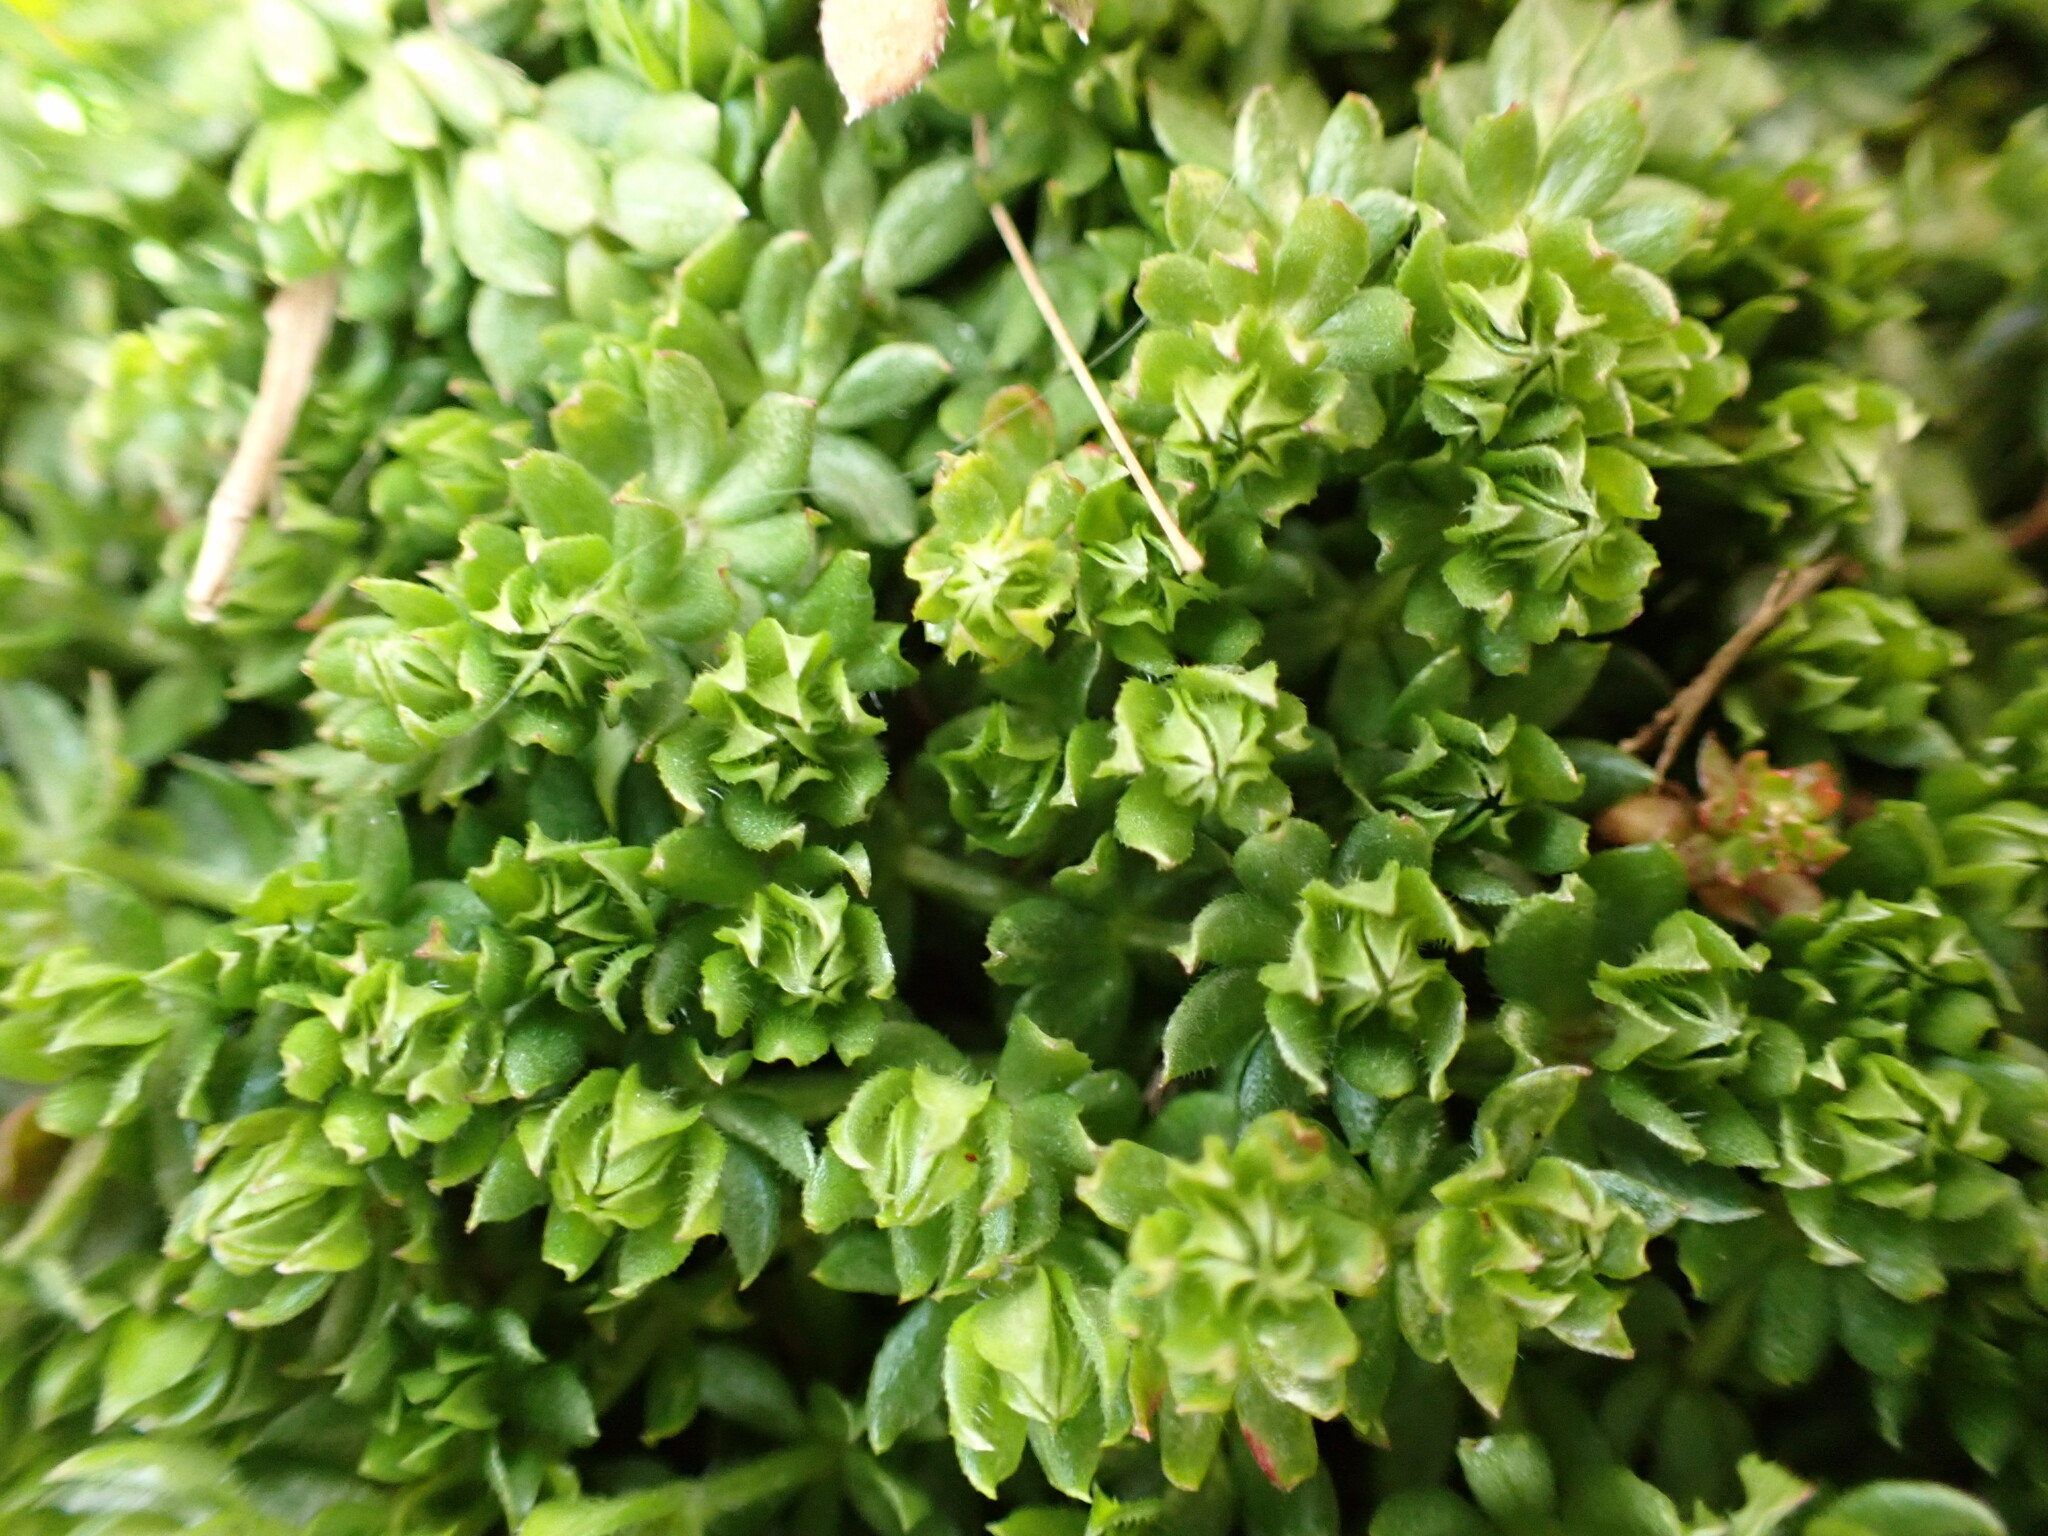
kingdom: Plantae
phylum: Tracheophyta
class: Magnoliopsida
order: Gentianales
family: Rubiaceae
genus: Sherardia
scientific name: Sherardia arvensis
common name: Field madder
